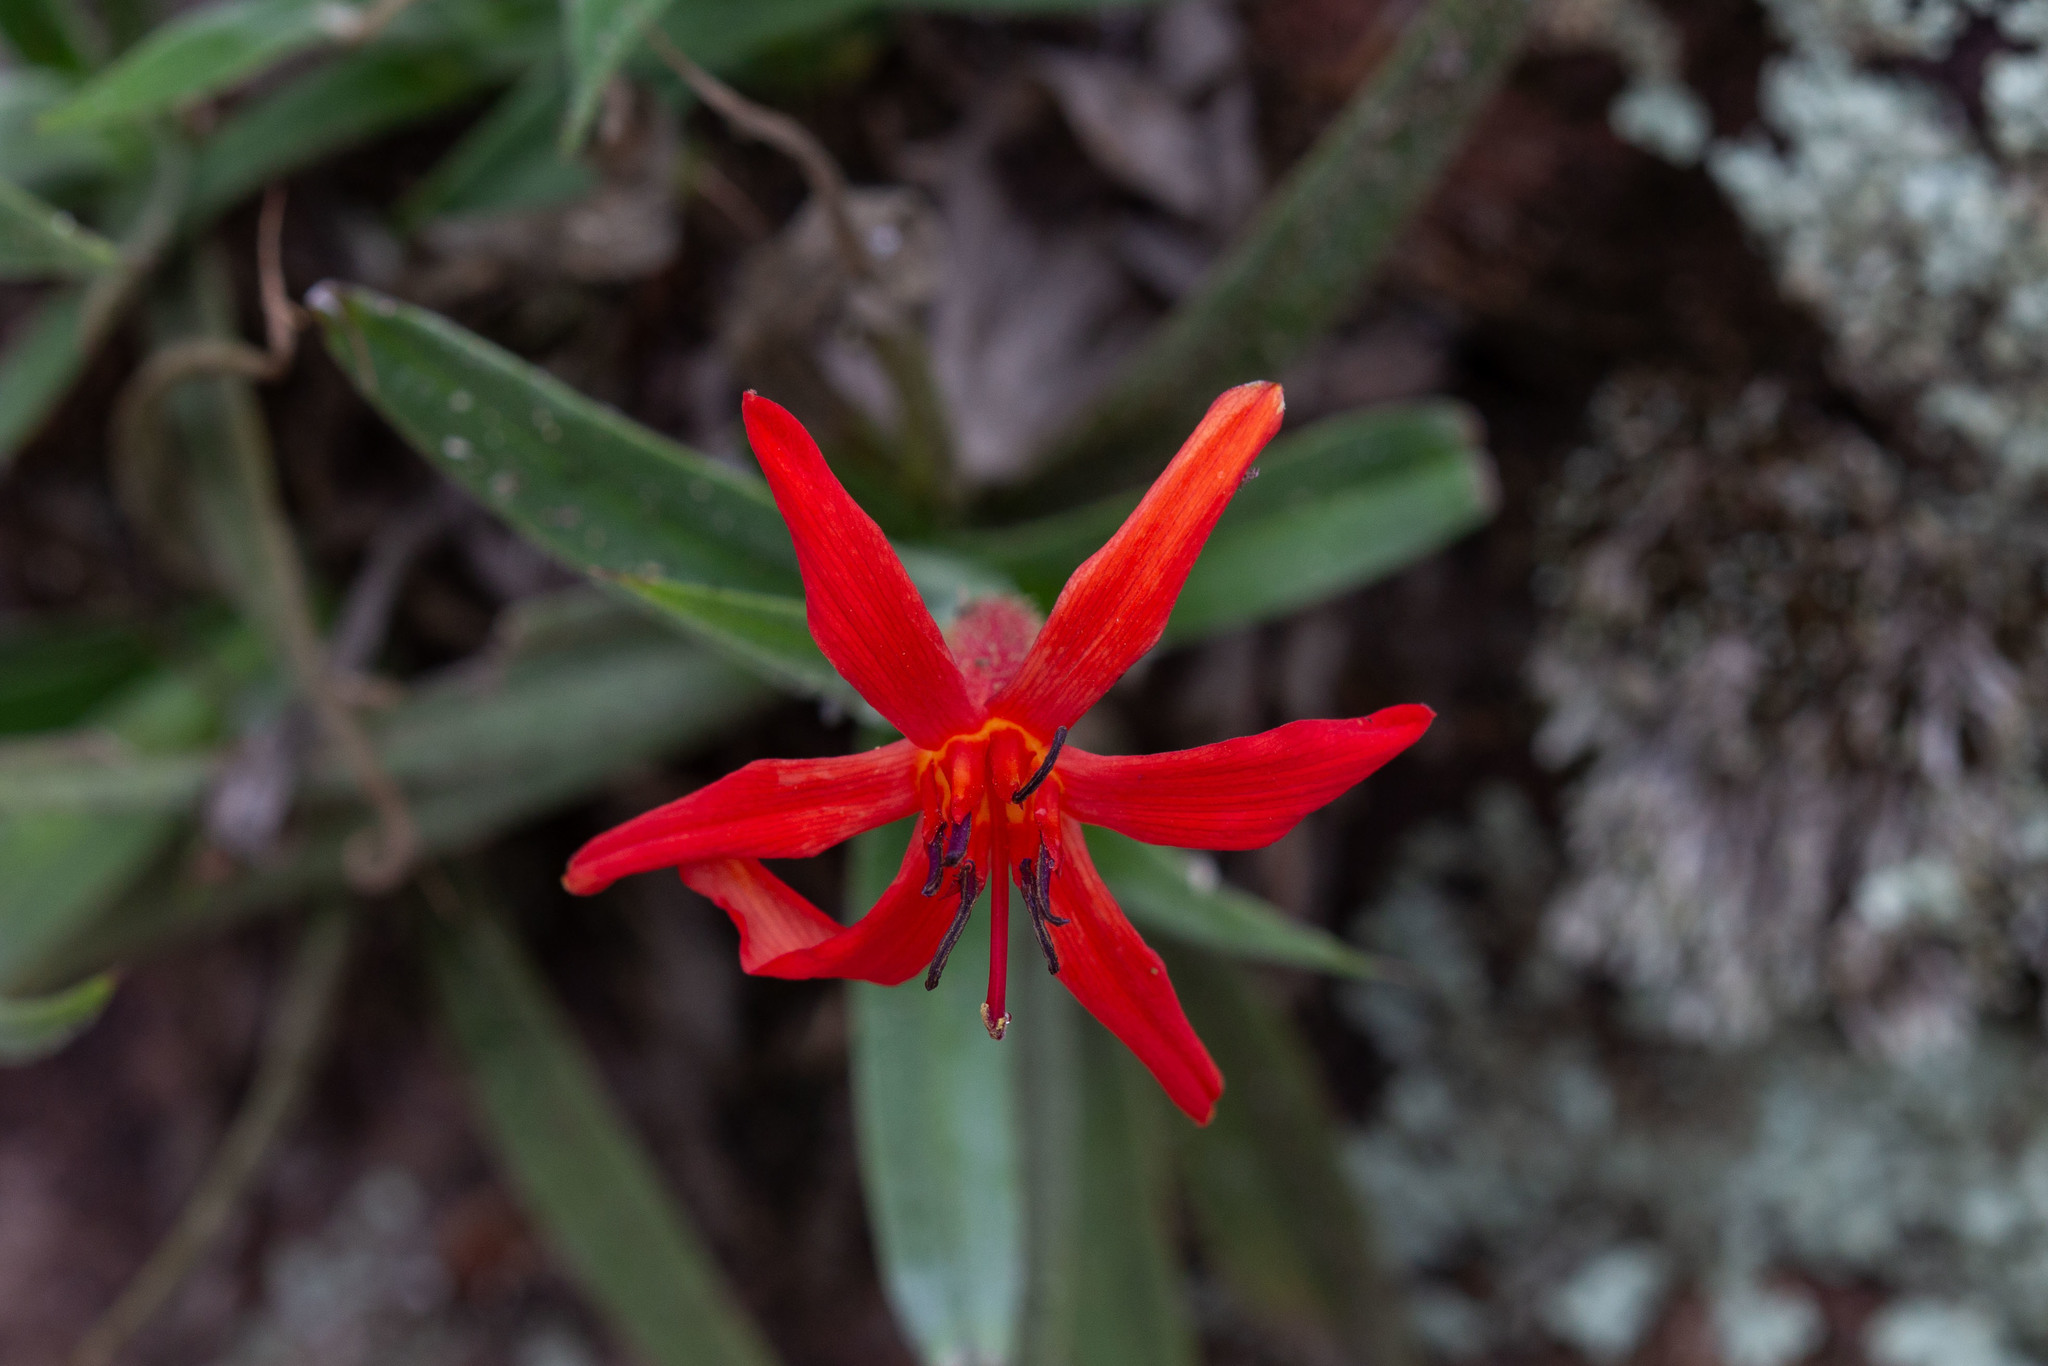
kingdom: Plantae
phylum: Tracheophyta
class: Liliopsida
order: Pandanales
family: Velloziaceae
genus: Barbacenia
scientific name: Barbacenia tomentosa
